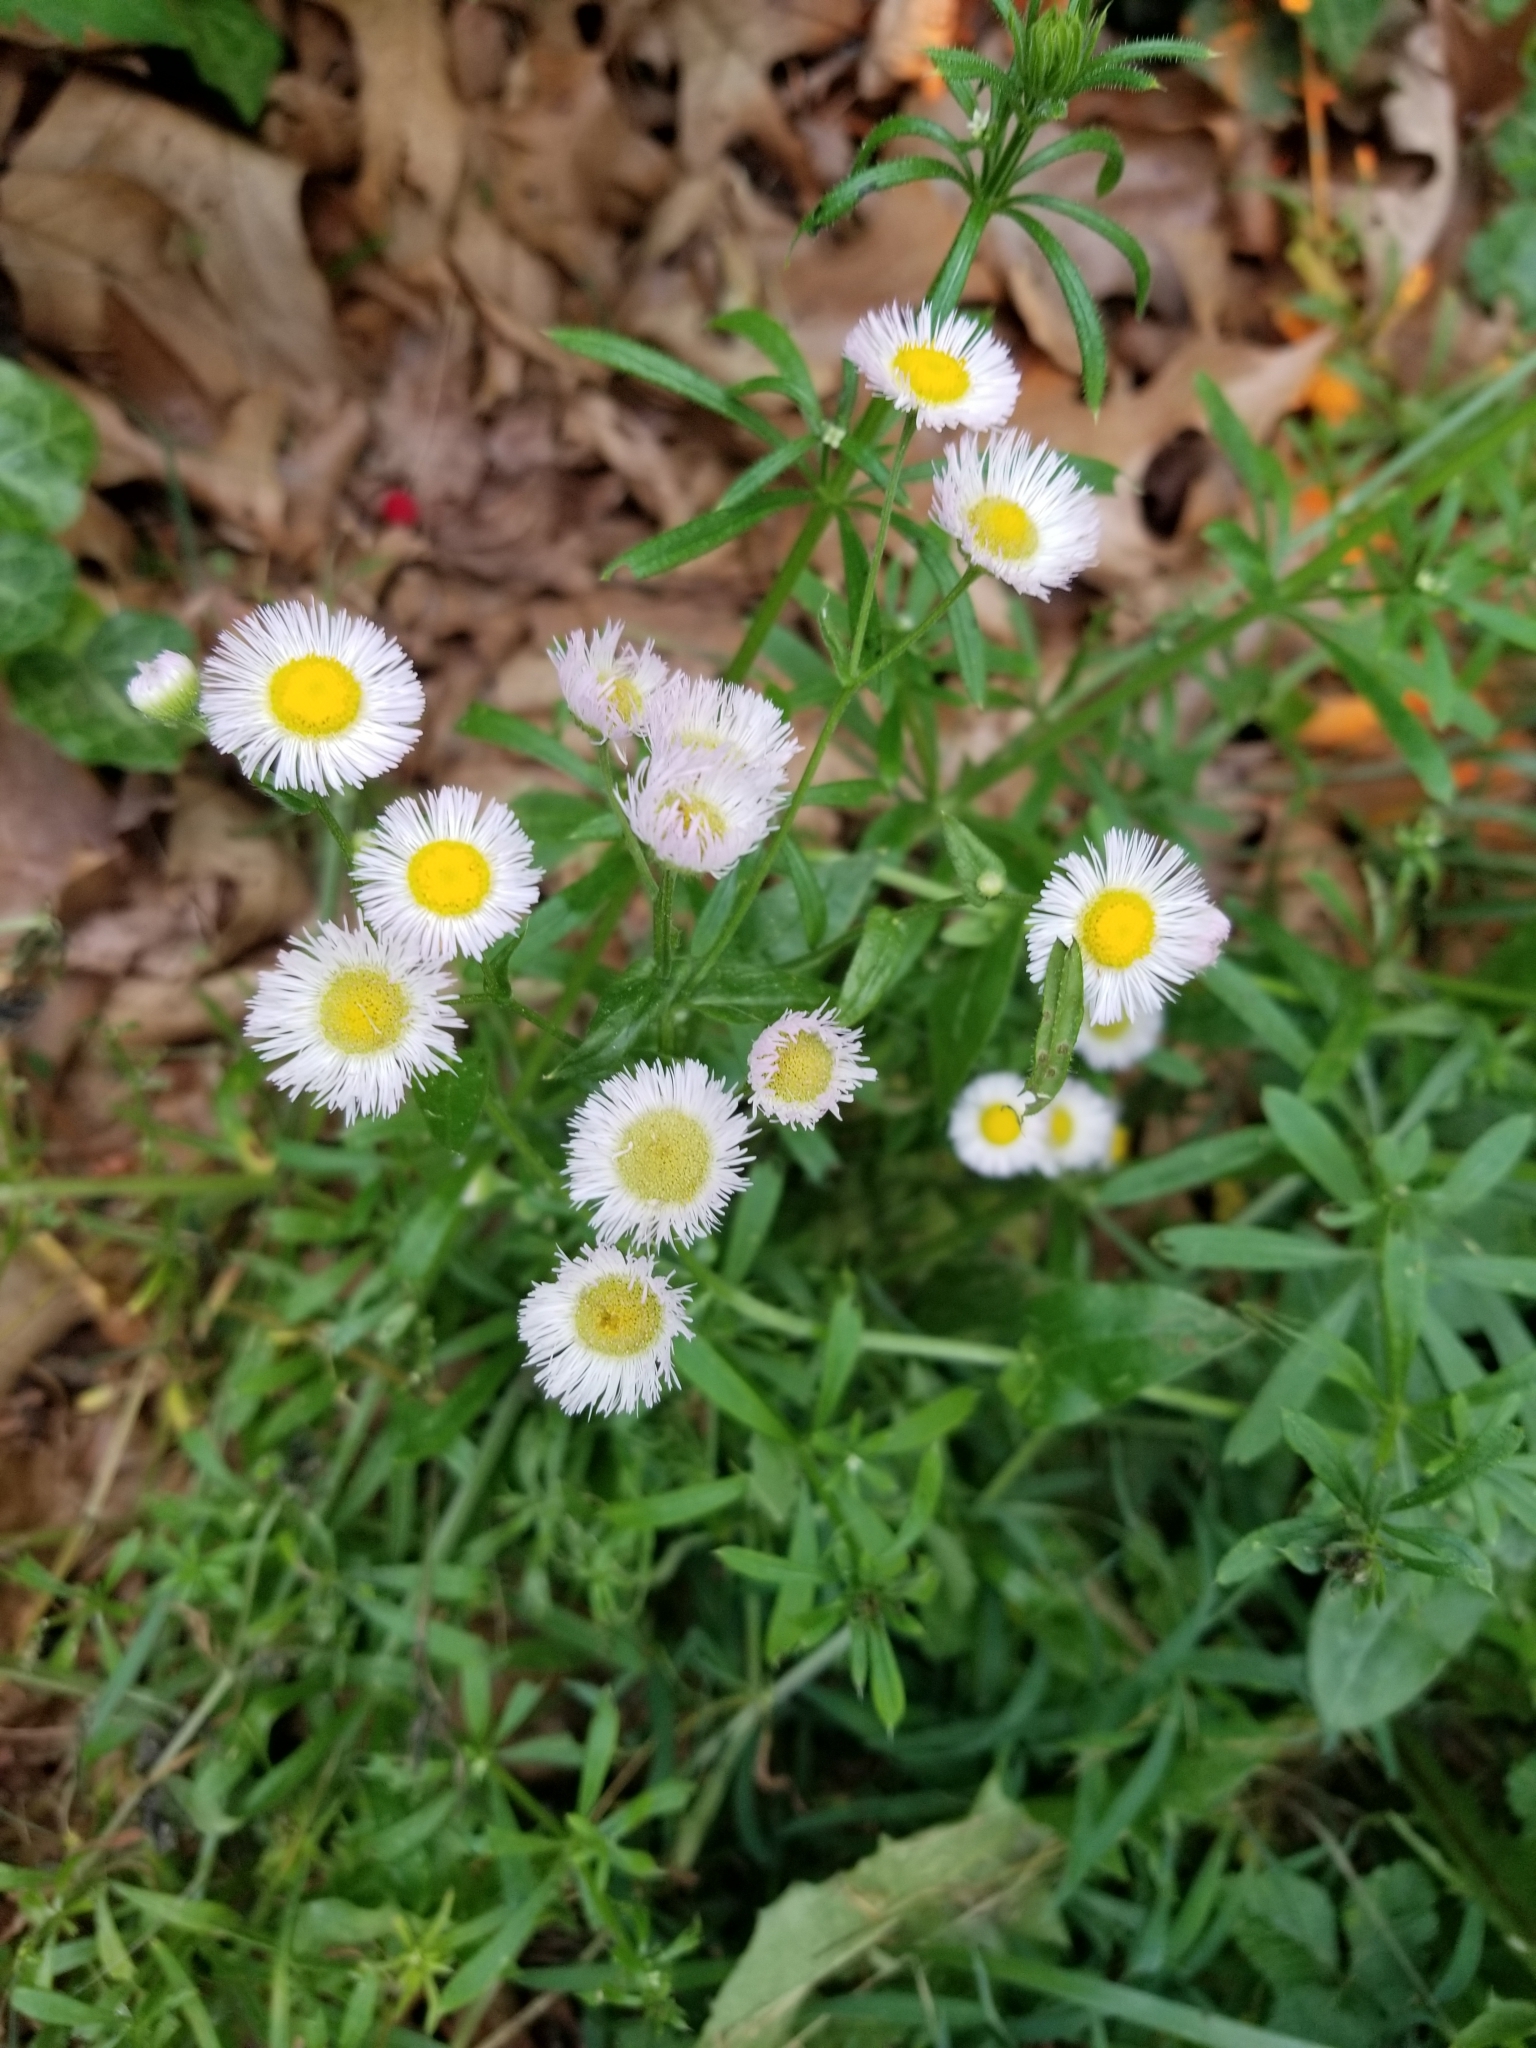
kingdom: Plantae
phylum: Tracheophyta
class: Magnoliopsida
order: Asterales
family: Asteraceae
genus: Erigeron
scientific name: Erigeron philadelphicus
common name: Robin's-plantain
